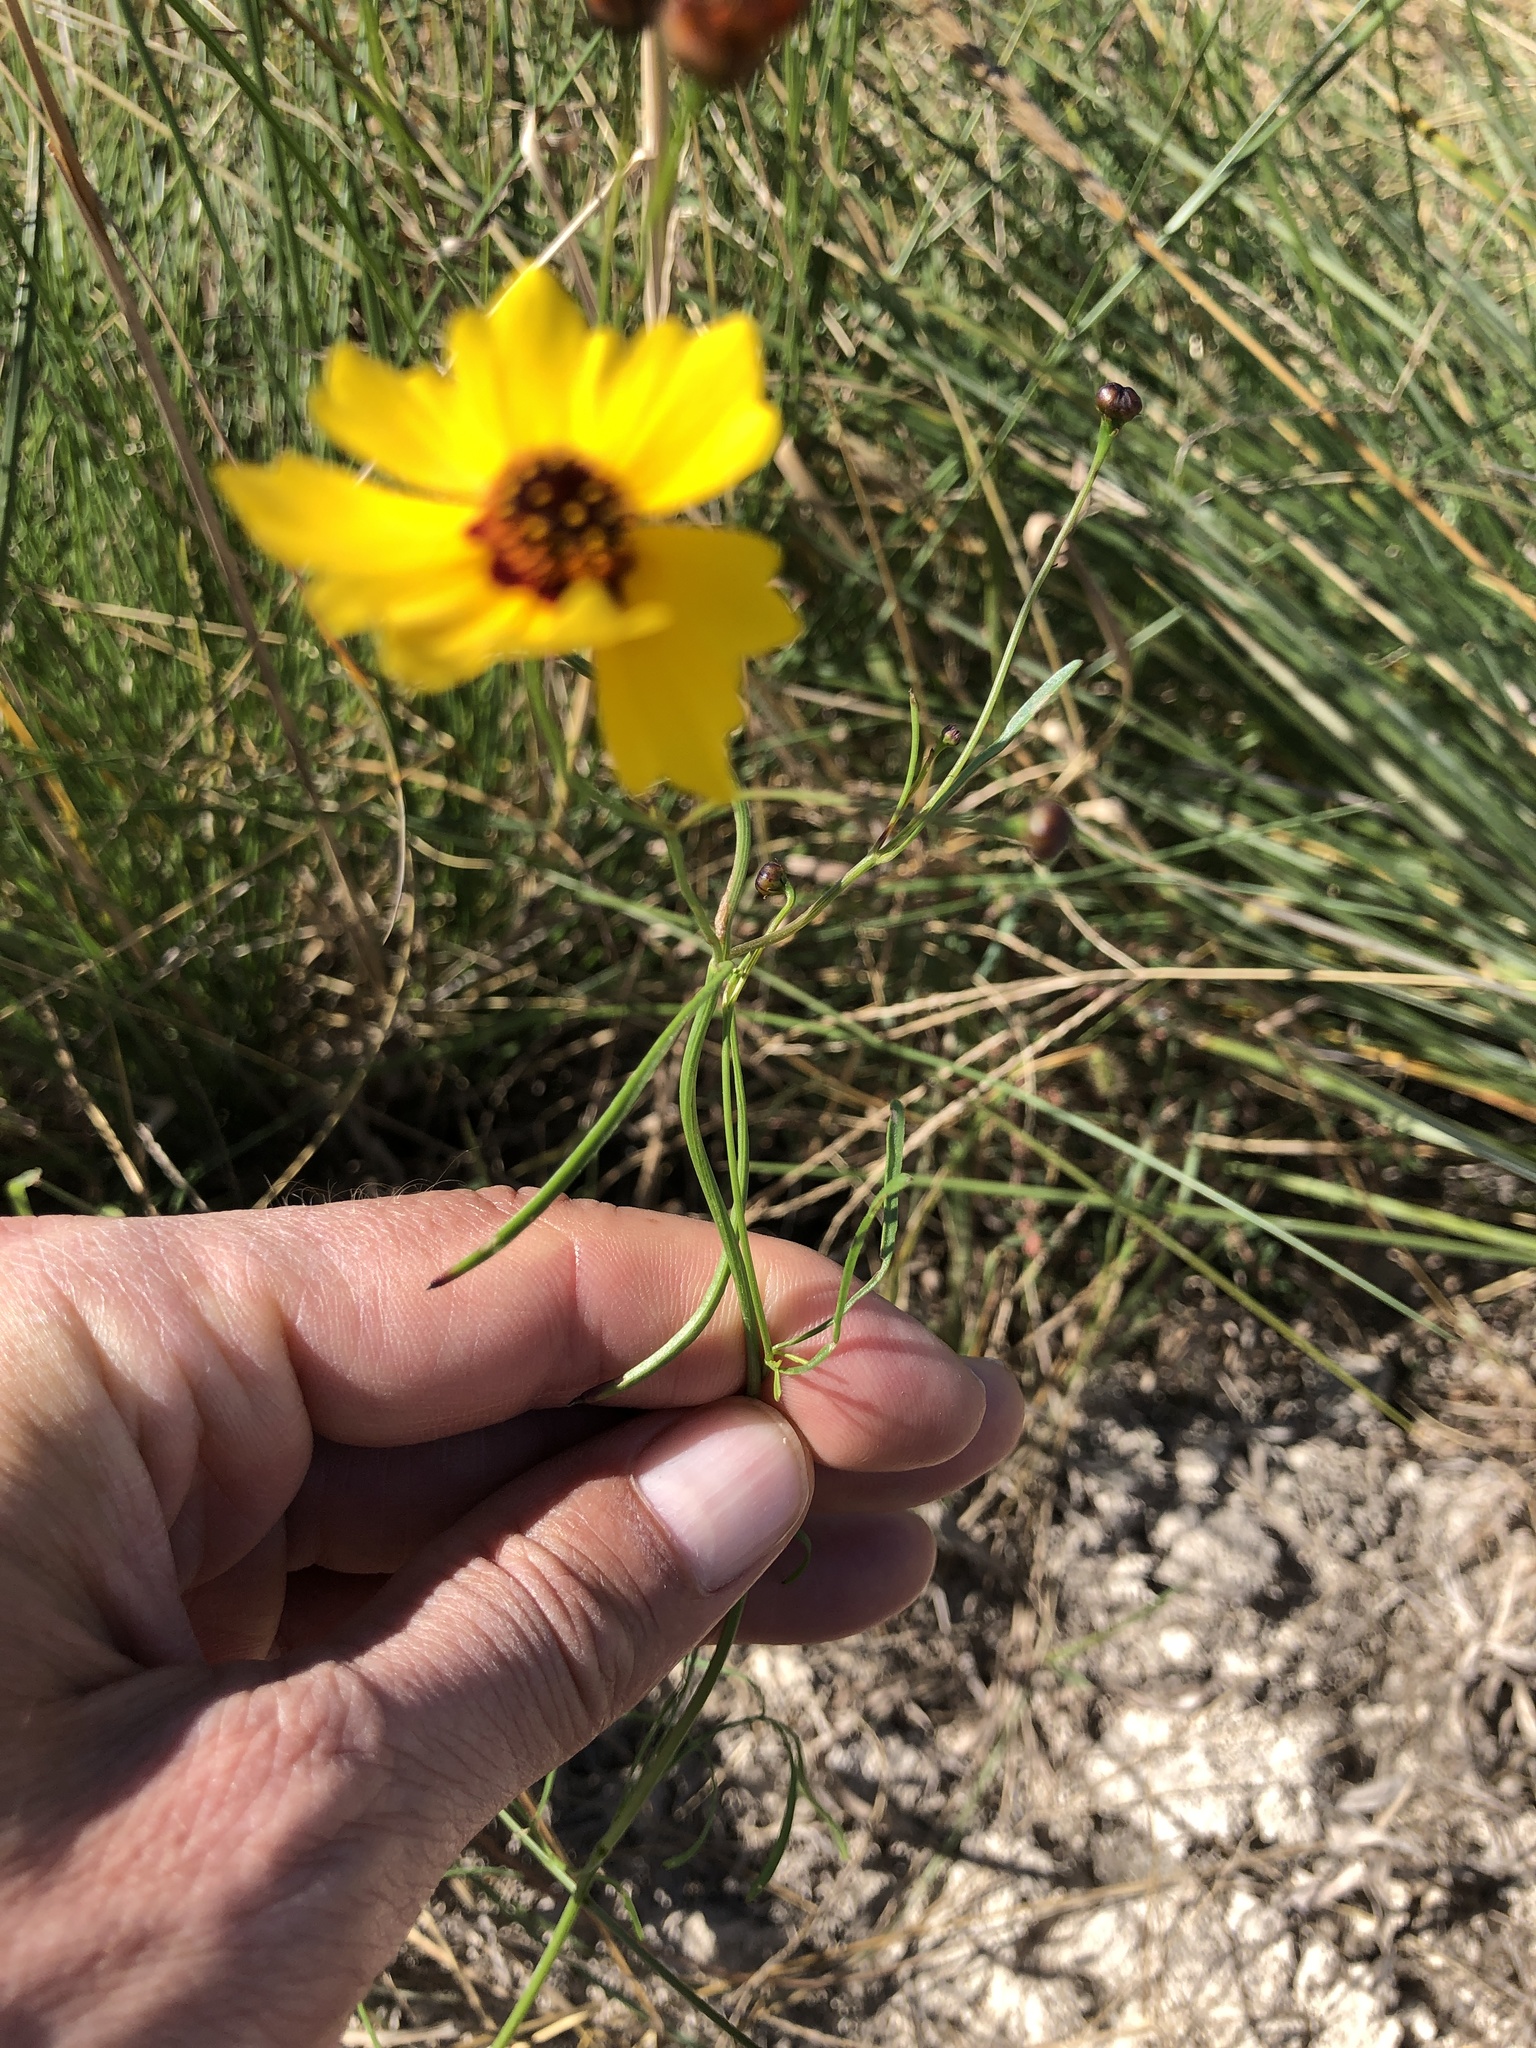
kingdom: Plantae
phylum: Tracheophyta
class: Magnoliopsida
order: Asterales
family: Asteraceae
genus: Thelesperma
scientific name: Thelesperma filifolium
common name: Stiff greenthread
